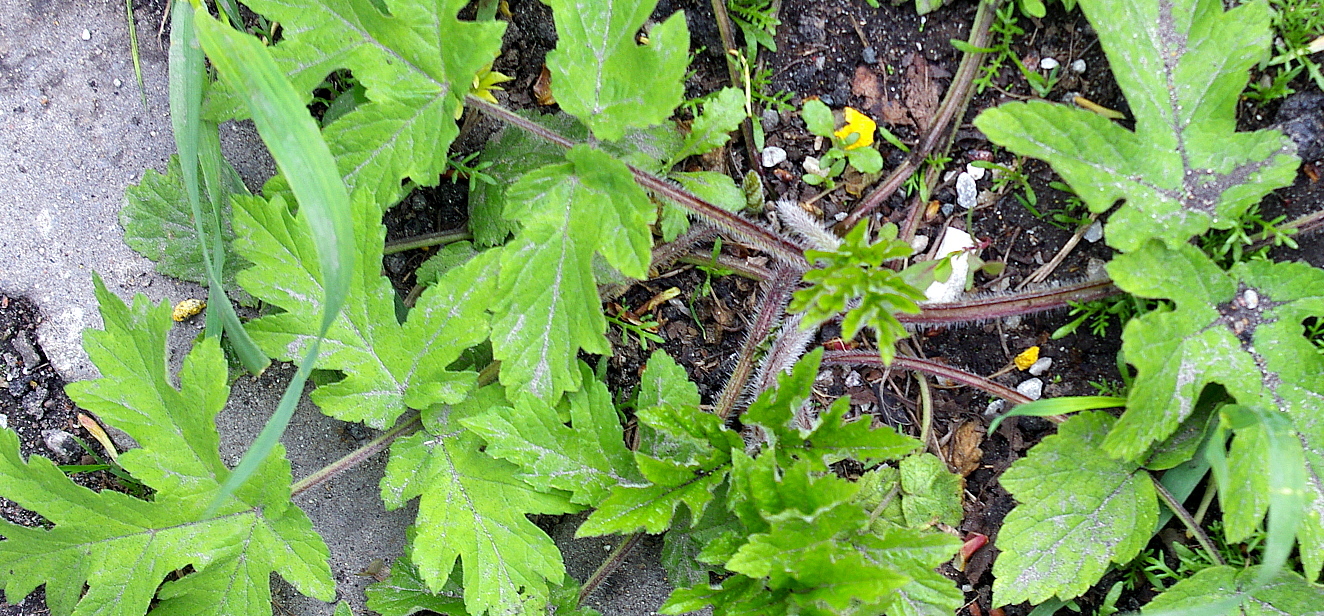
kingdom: Plantae
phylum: Tracheophyta
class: Magnoliopsida
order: Apiales
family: Apiaceae
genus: Heracleum
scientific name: Heracleum sphondylium
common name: Hogweed
